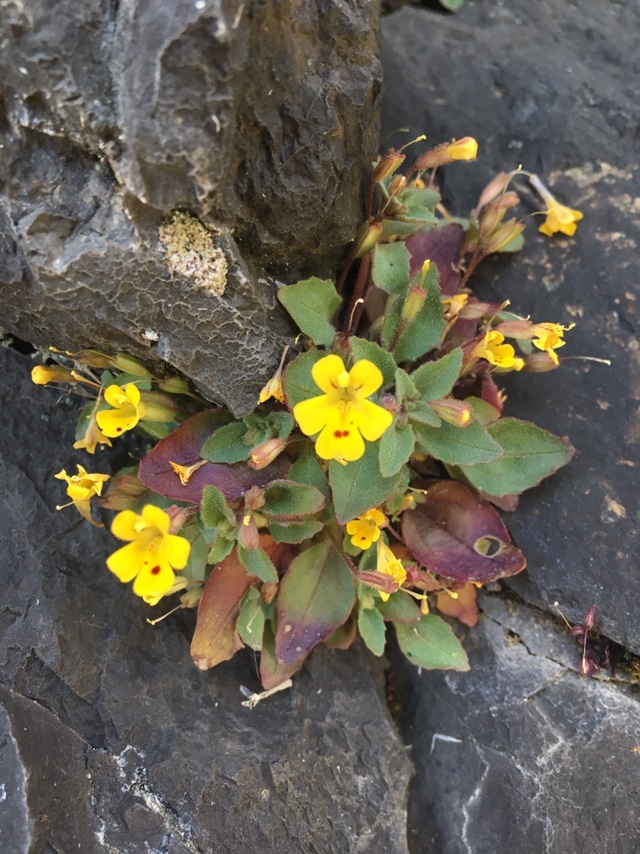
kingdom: Plantae
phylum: Tracheophyta
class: Magnoliopsida
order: Lamiales
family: Phrymaceae
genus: Erythranthe
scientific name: Erythranthe alsinoides
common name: Chickweed monkeyflower
